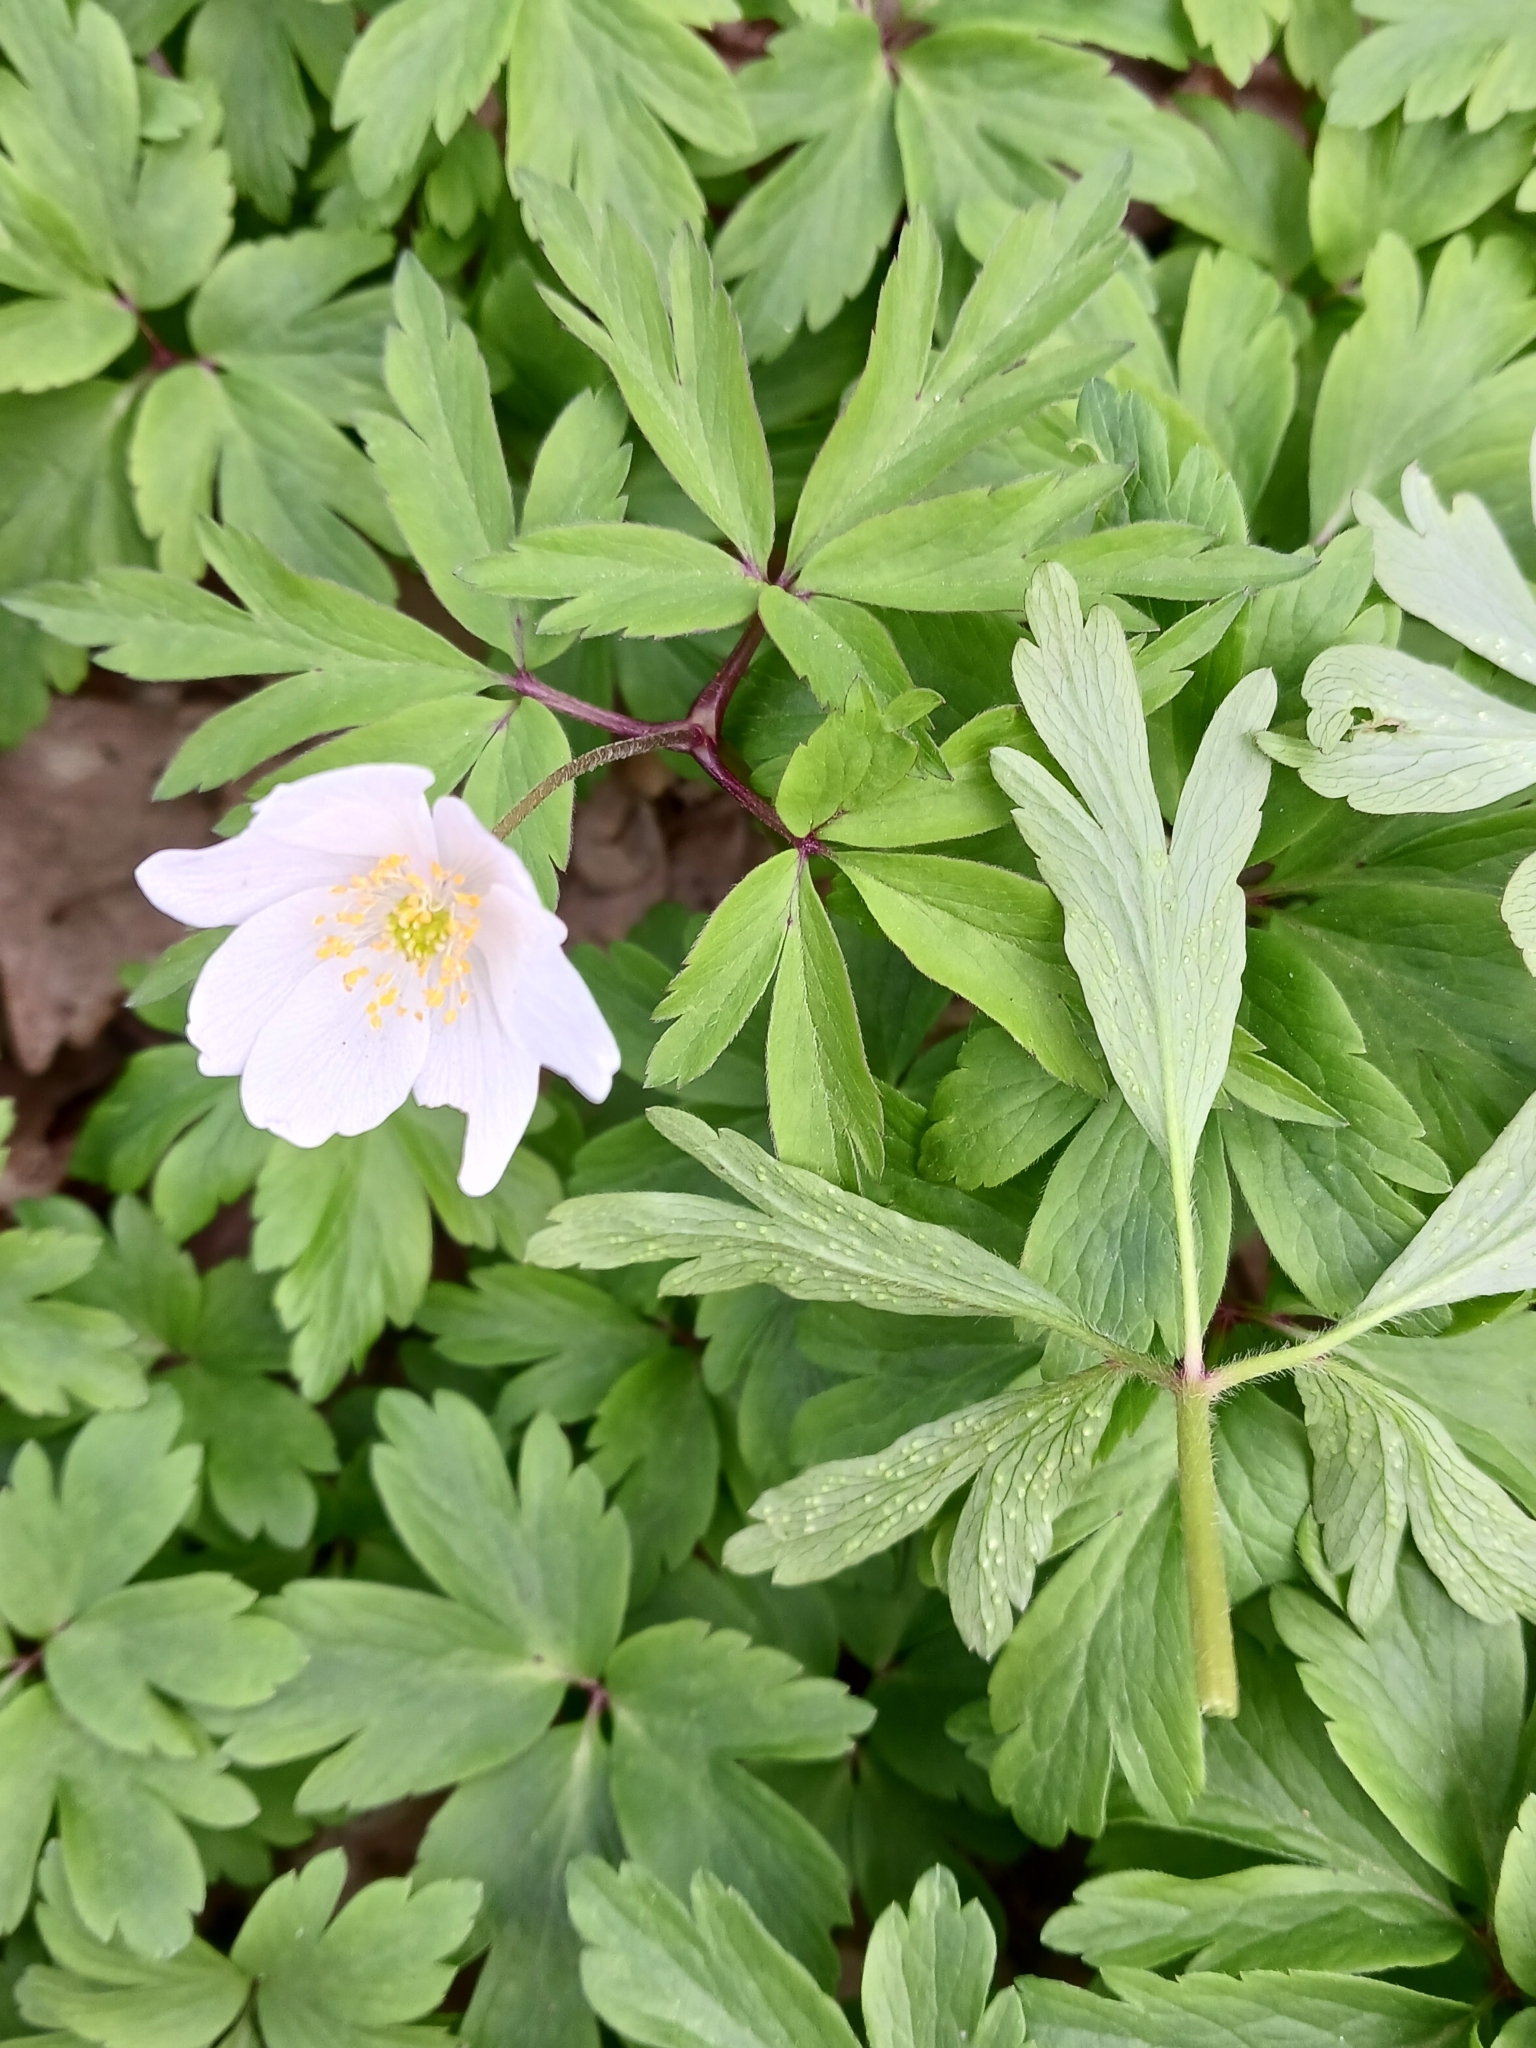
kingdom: Fungi
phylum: Basidiomycota
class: Pucciniomycetes
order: Pucciniales
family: Ochropsoraceae
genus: Ochropsora
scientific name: Ochropsora ariae
